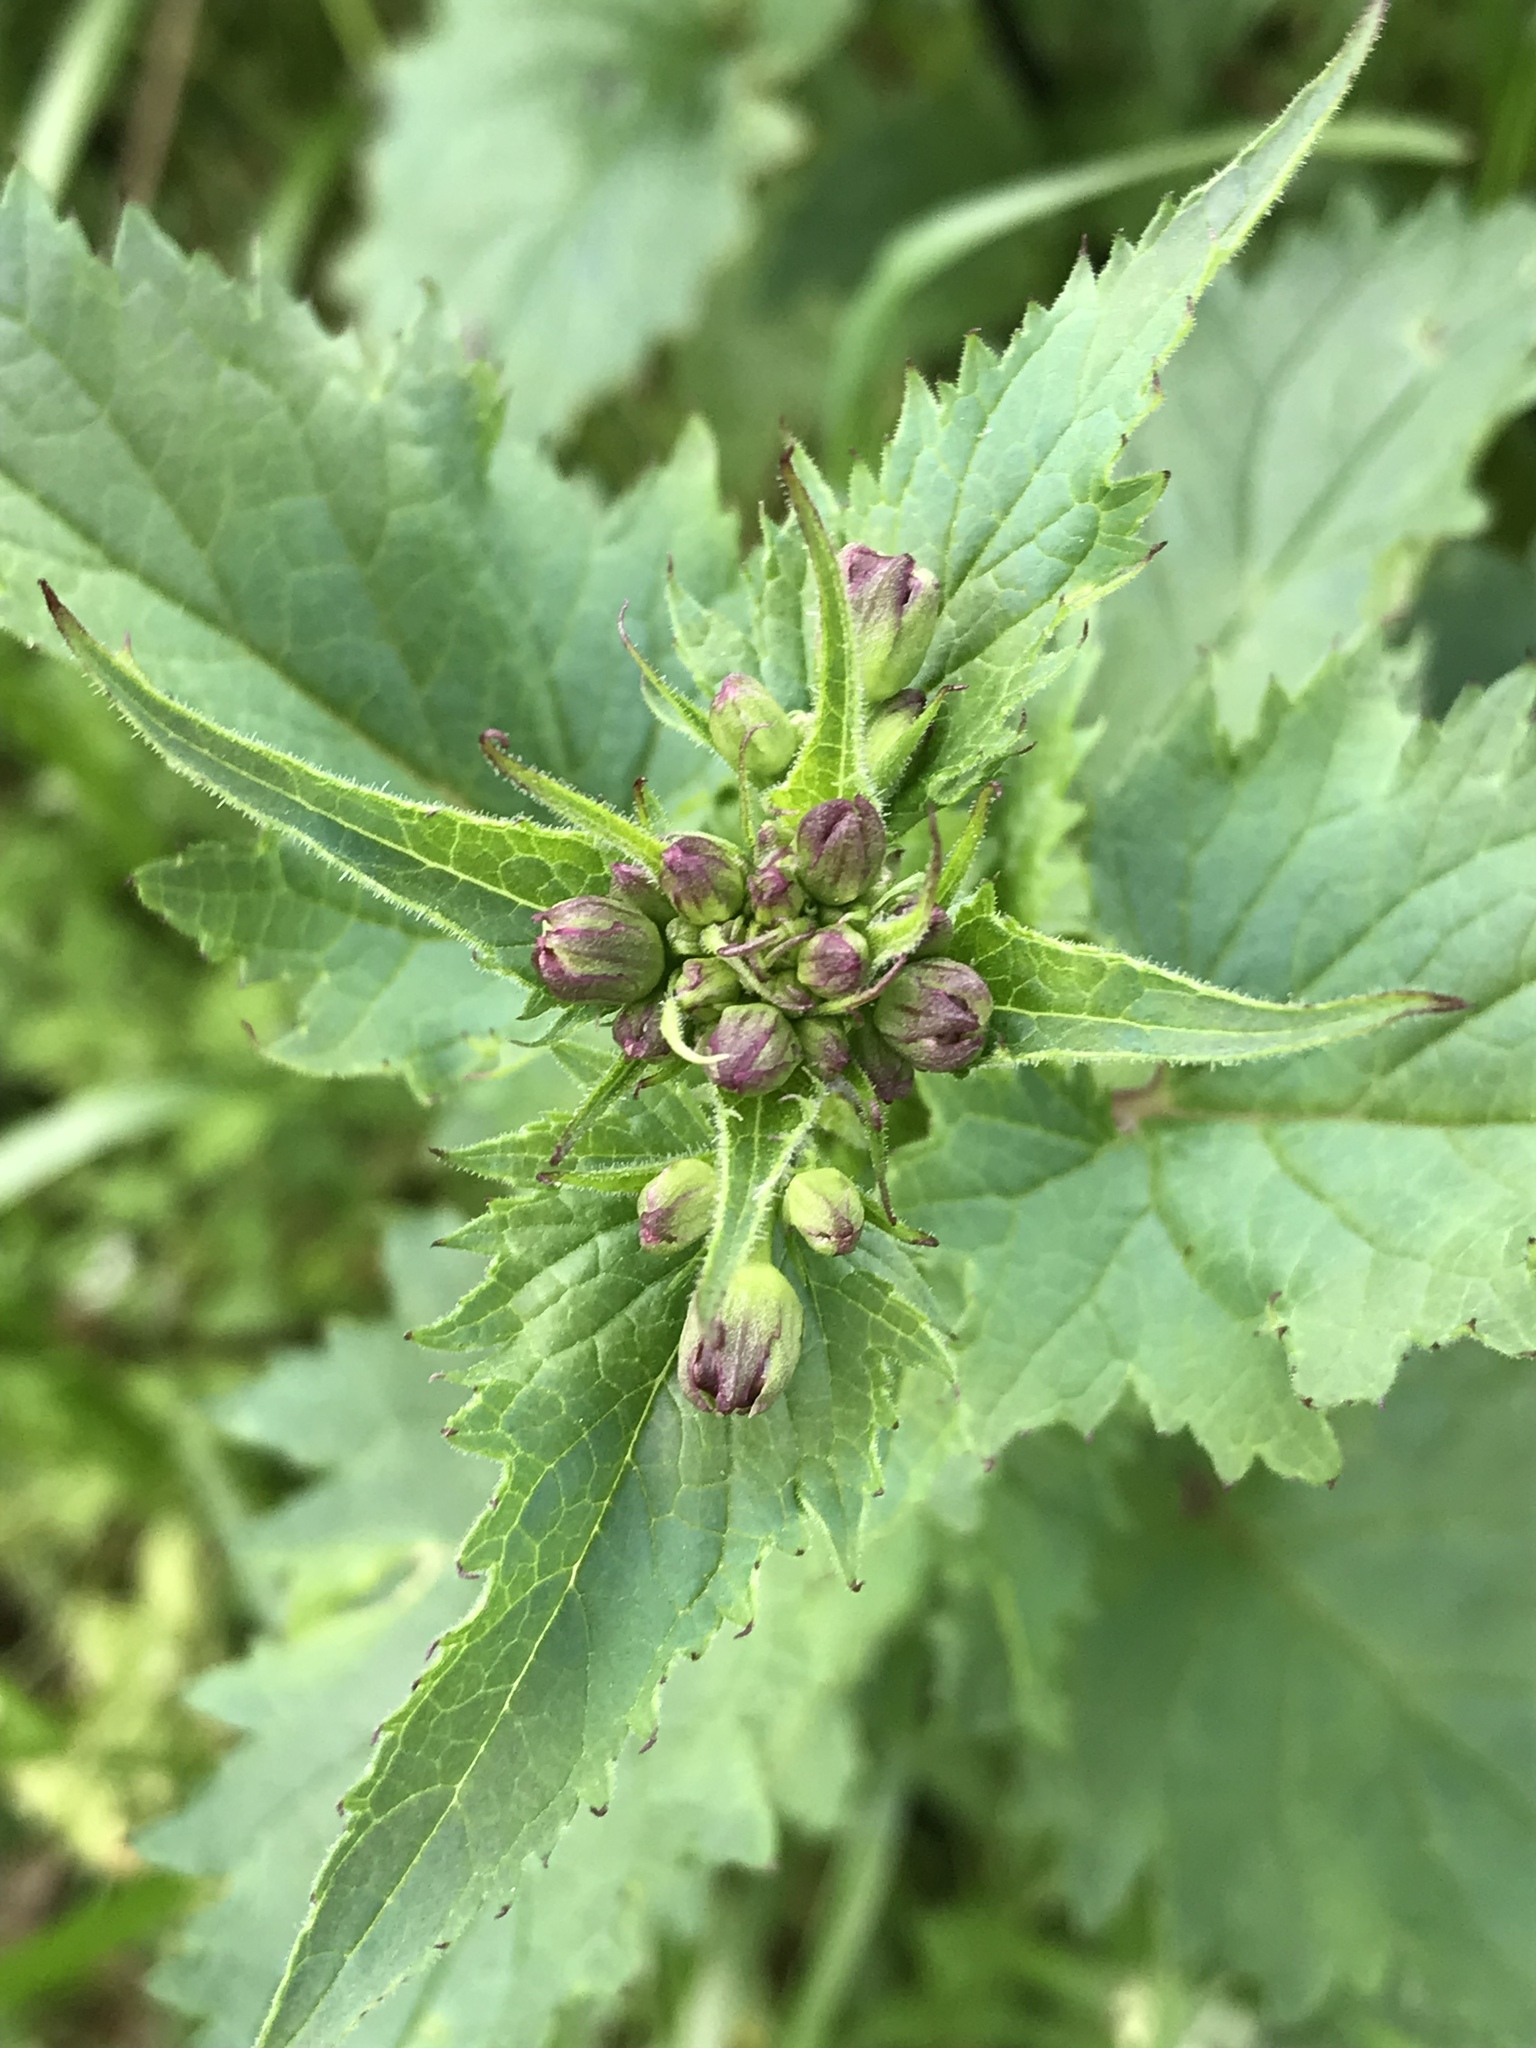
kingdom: Plantae
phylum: Tracheophyta
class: Magnoliopsida
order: Lamiales
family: Scrophulariaceae
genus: Scrophularia
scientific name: Scrophularia californica
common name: California figwort
